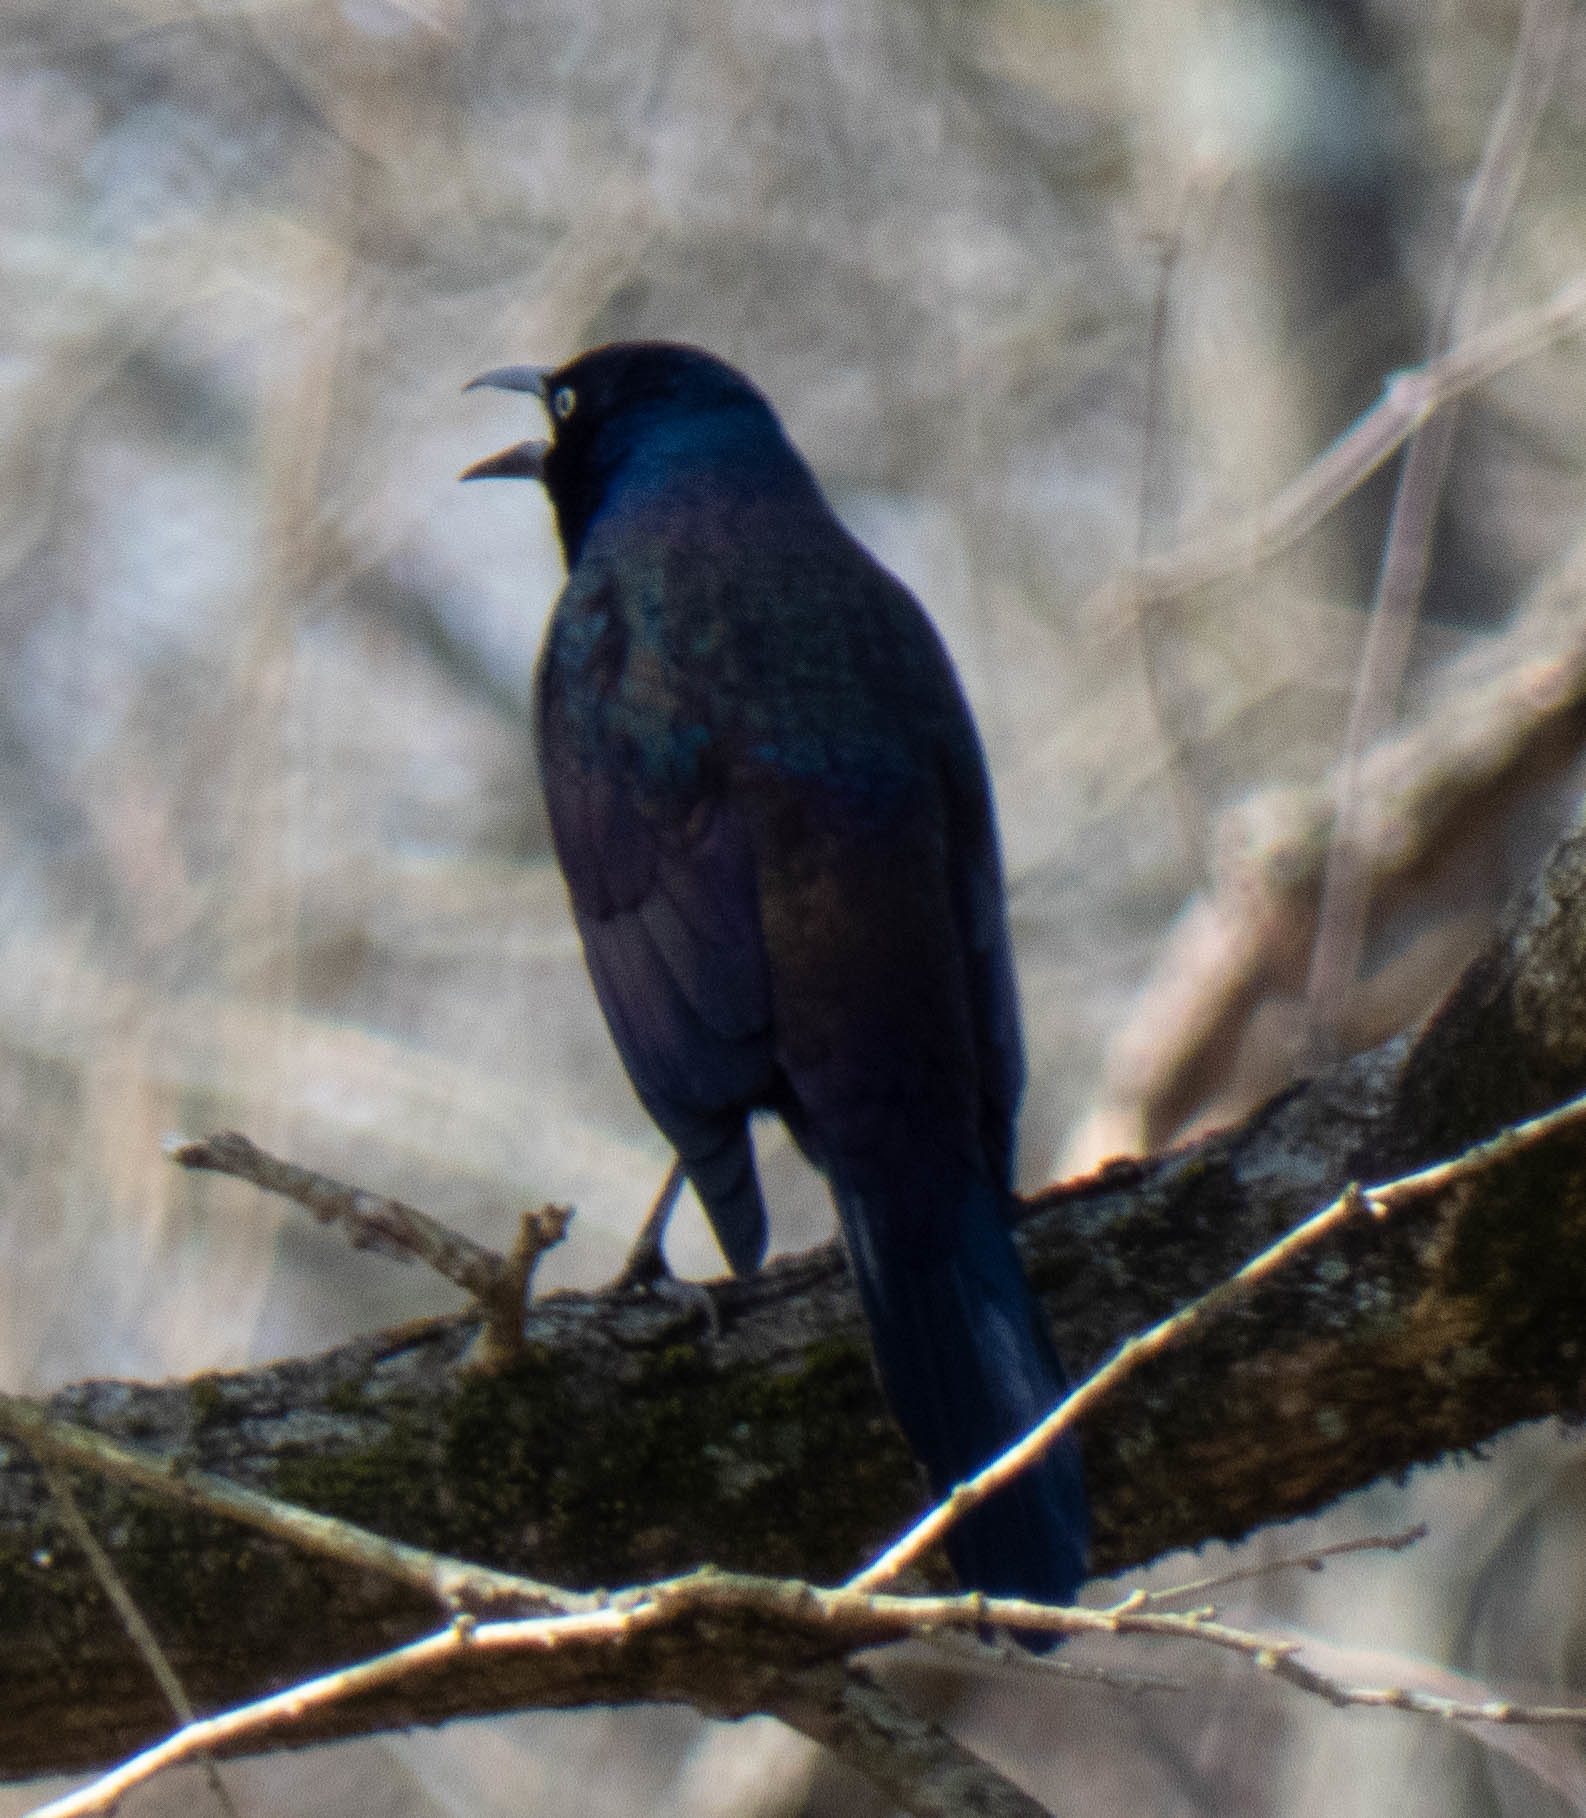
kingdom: Animalia
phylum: Chordata
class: Aves
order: Passeriformes
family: Icteridae
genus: Quiscalus
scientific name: Quiscalus quiscula
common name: Common grackle
